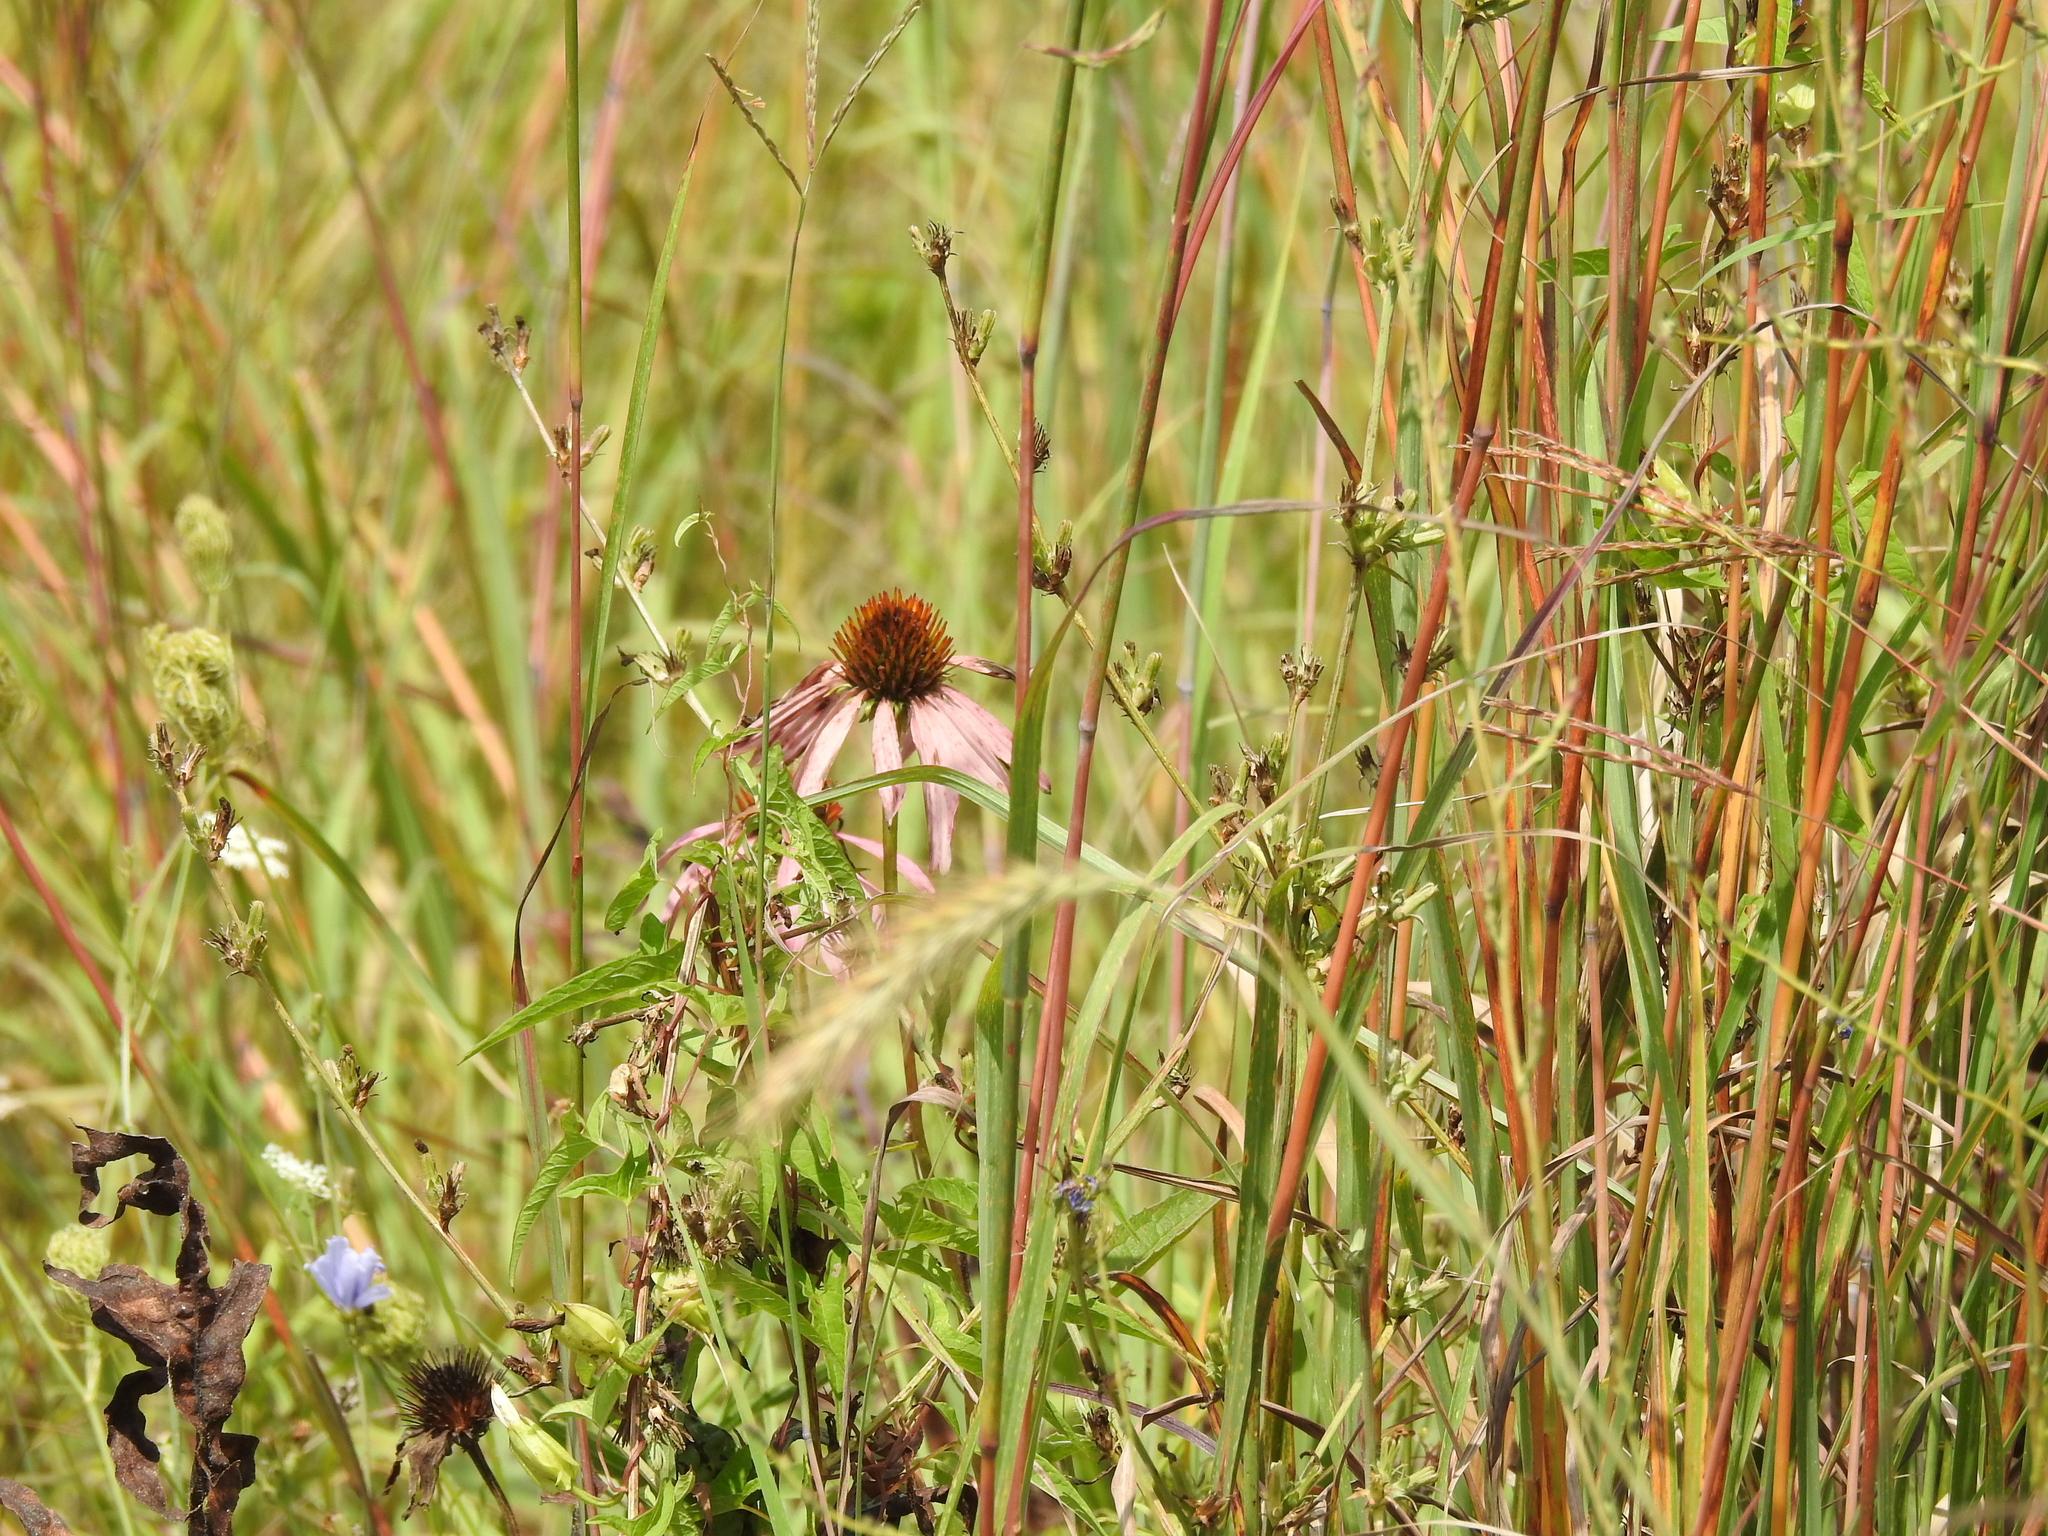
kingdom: Plantae
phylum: Tracheophyta
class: Magnoliopsida
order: Asterales
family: Asteraceae
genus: Echinacea
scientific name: Echinacea purpurea
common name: Broad-leaved purple coneflower
